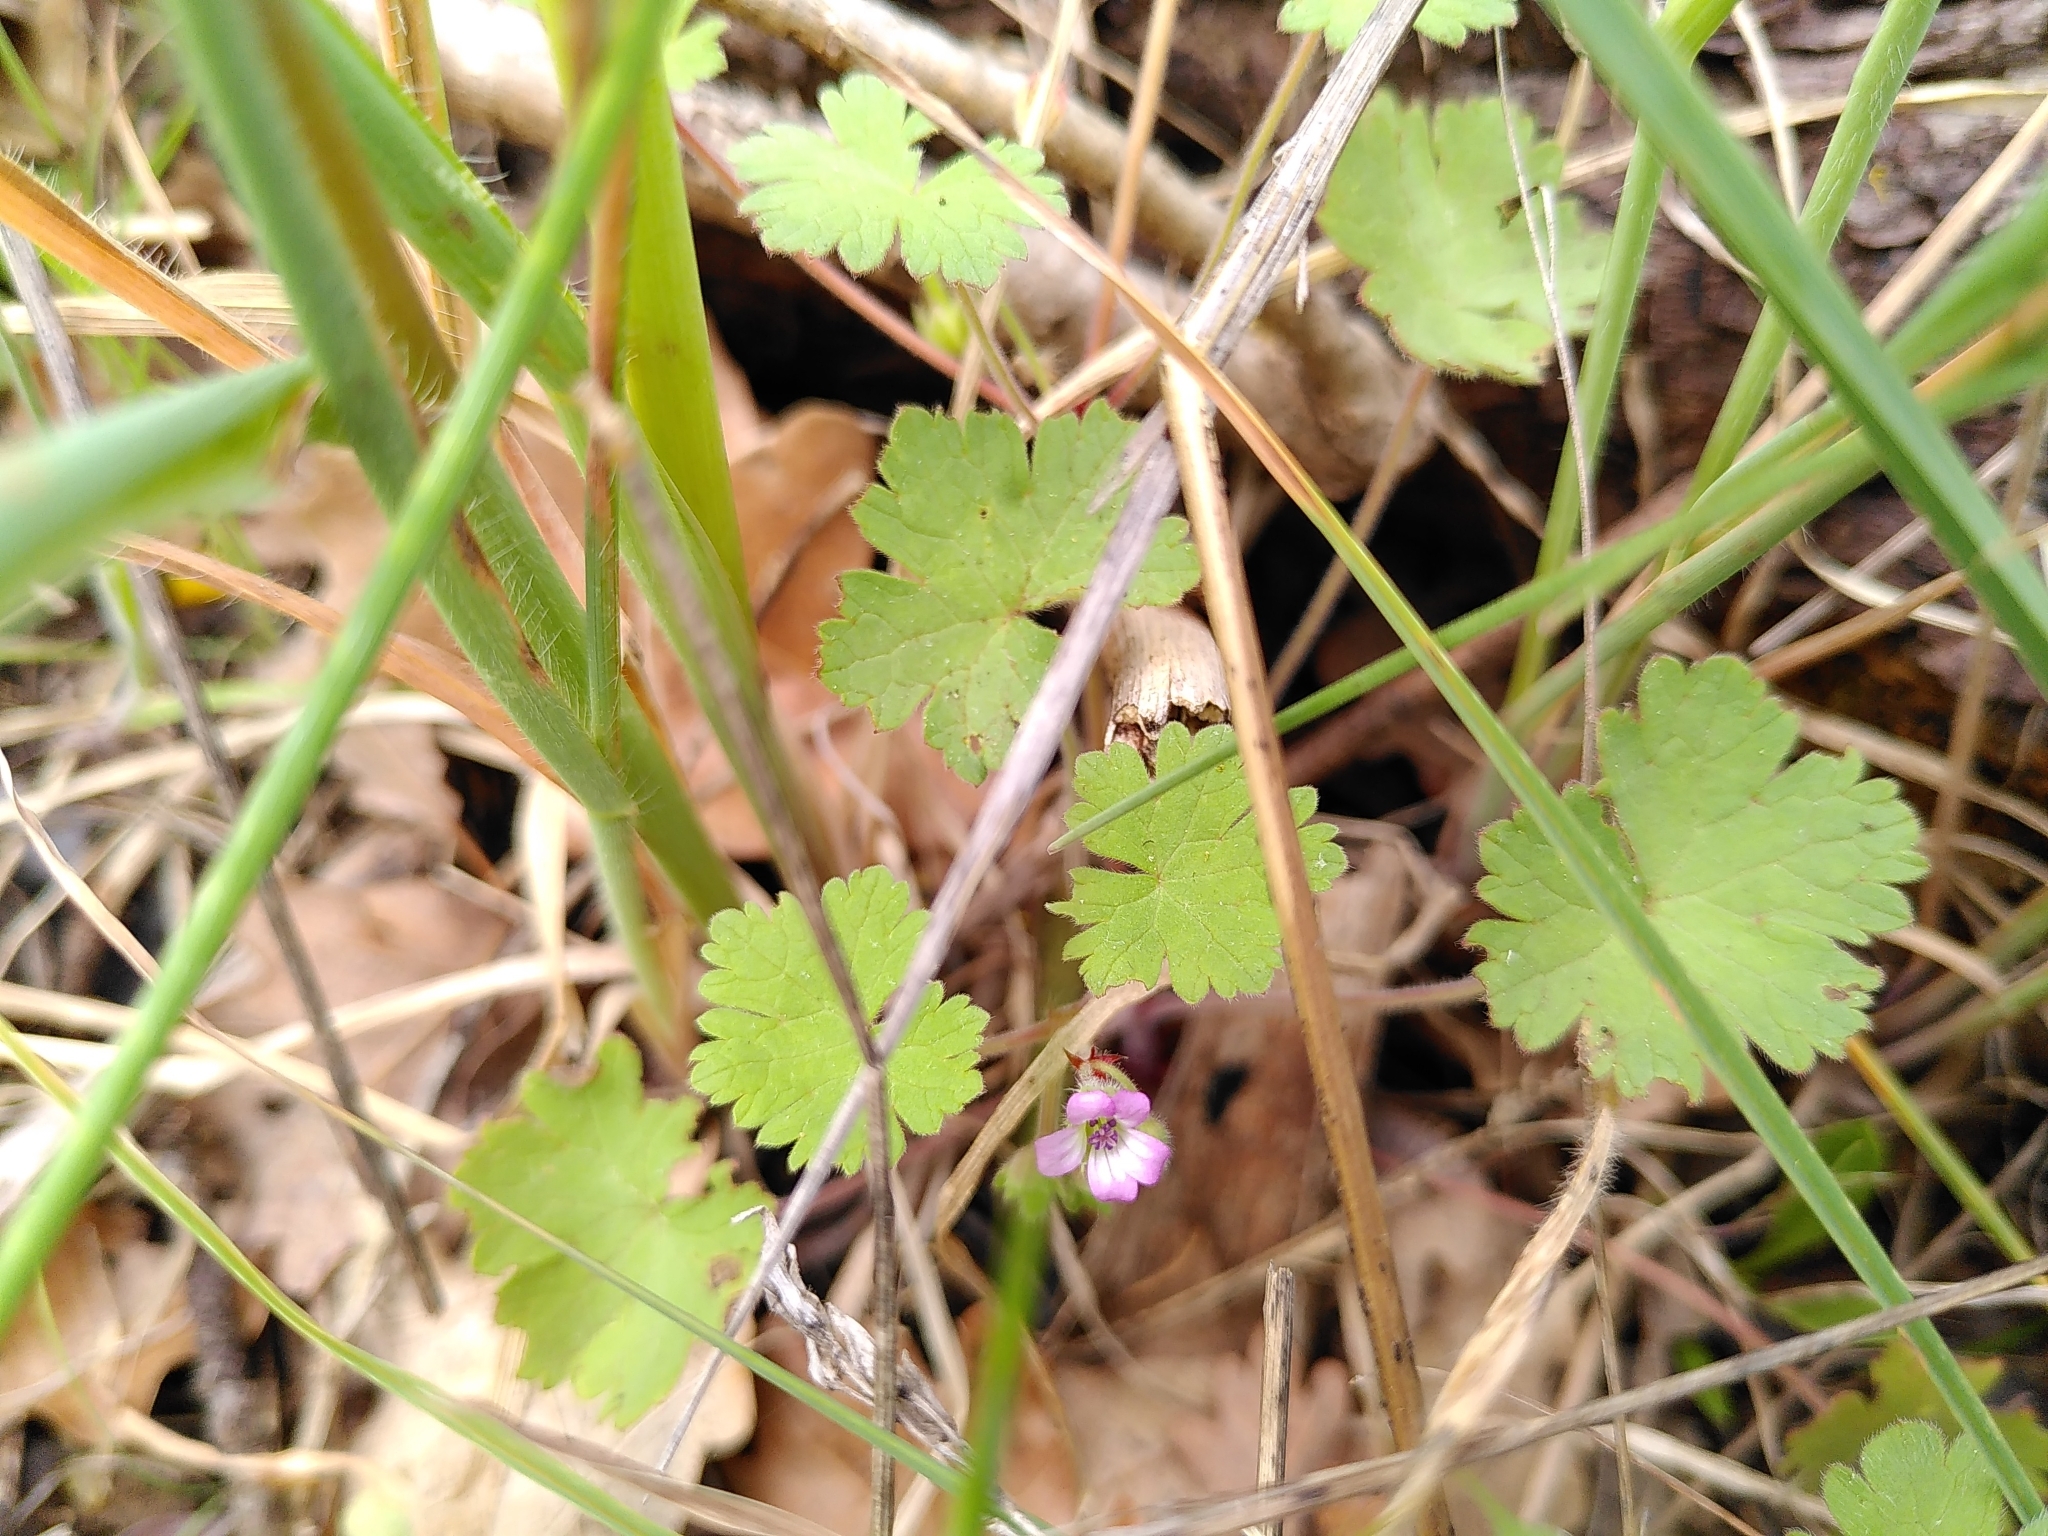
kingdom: Plantae
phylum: Tracheophyta
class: Magnoliopsida
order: Geraniales
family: Geraniaceae
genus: Geranium
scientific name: Geranium rotundifolium
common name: Round-leaved crane's-bill
